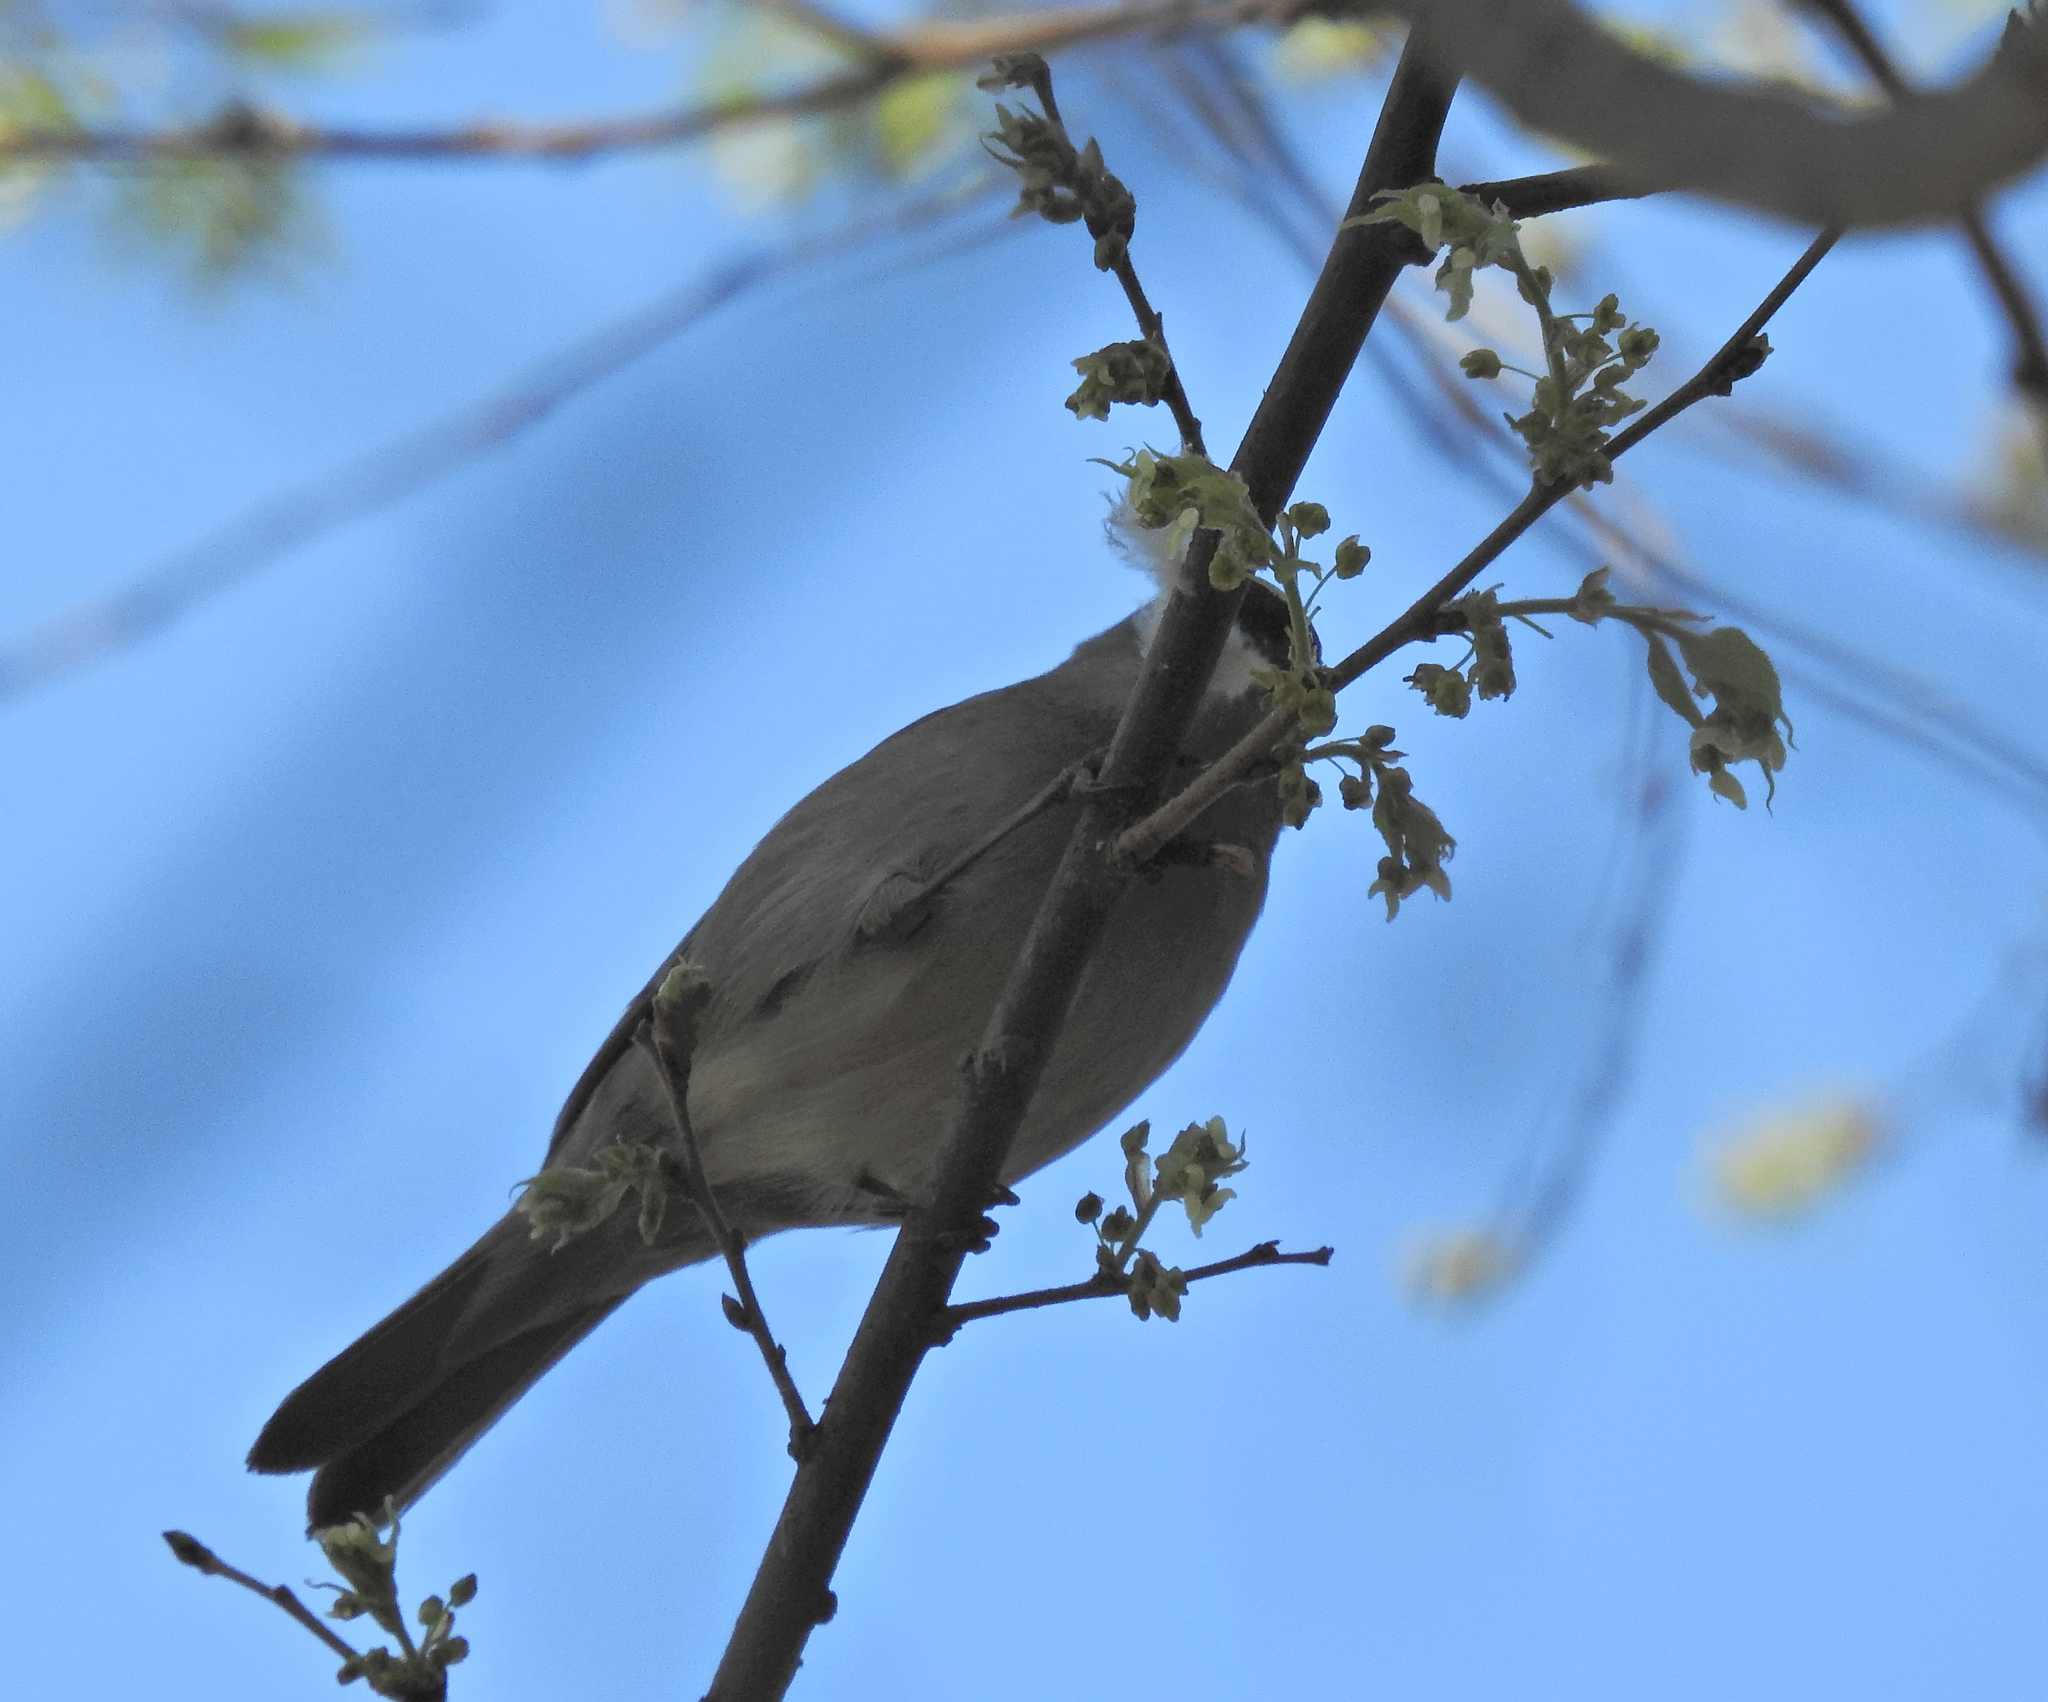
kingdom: Animalia
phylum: Chordata
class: Aves
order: Passeriformes
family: Sylviidae
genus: Sylvia
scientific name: Sylvia atricapilla
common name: Eurasian blackcap
